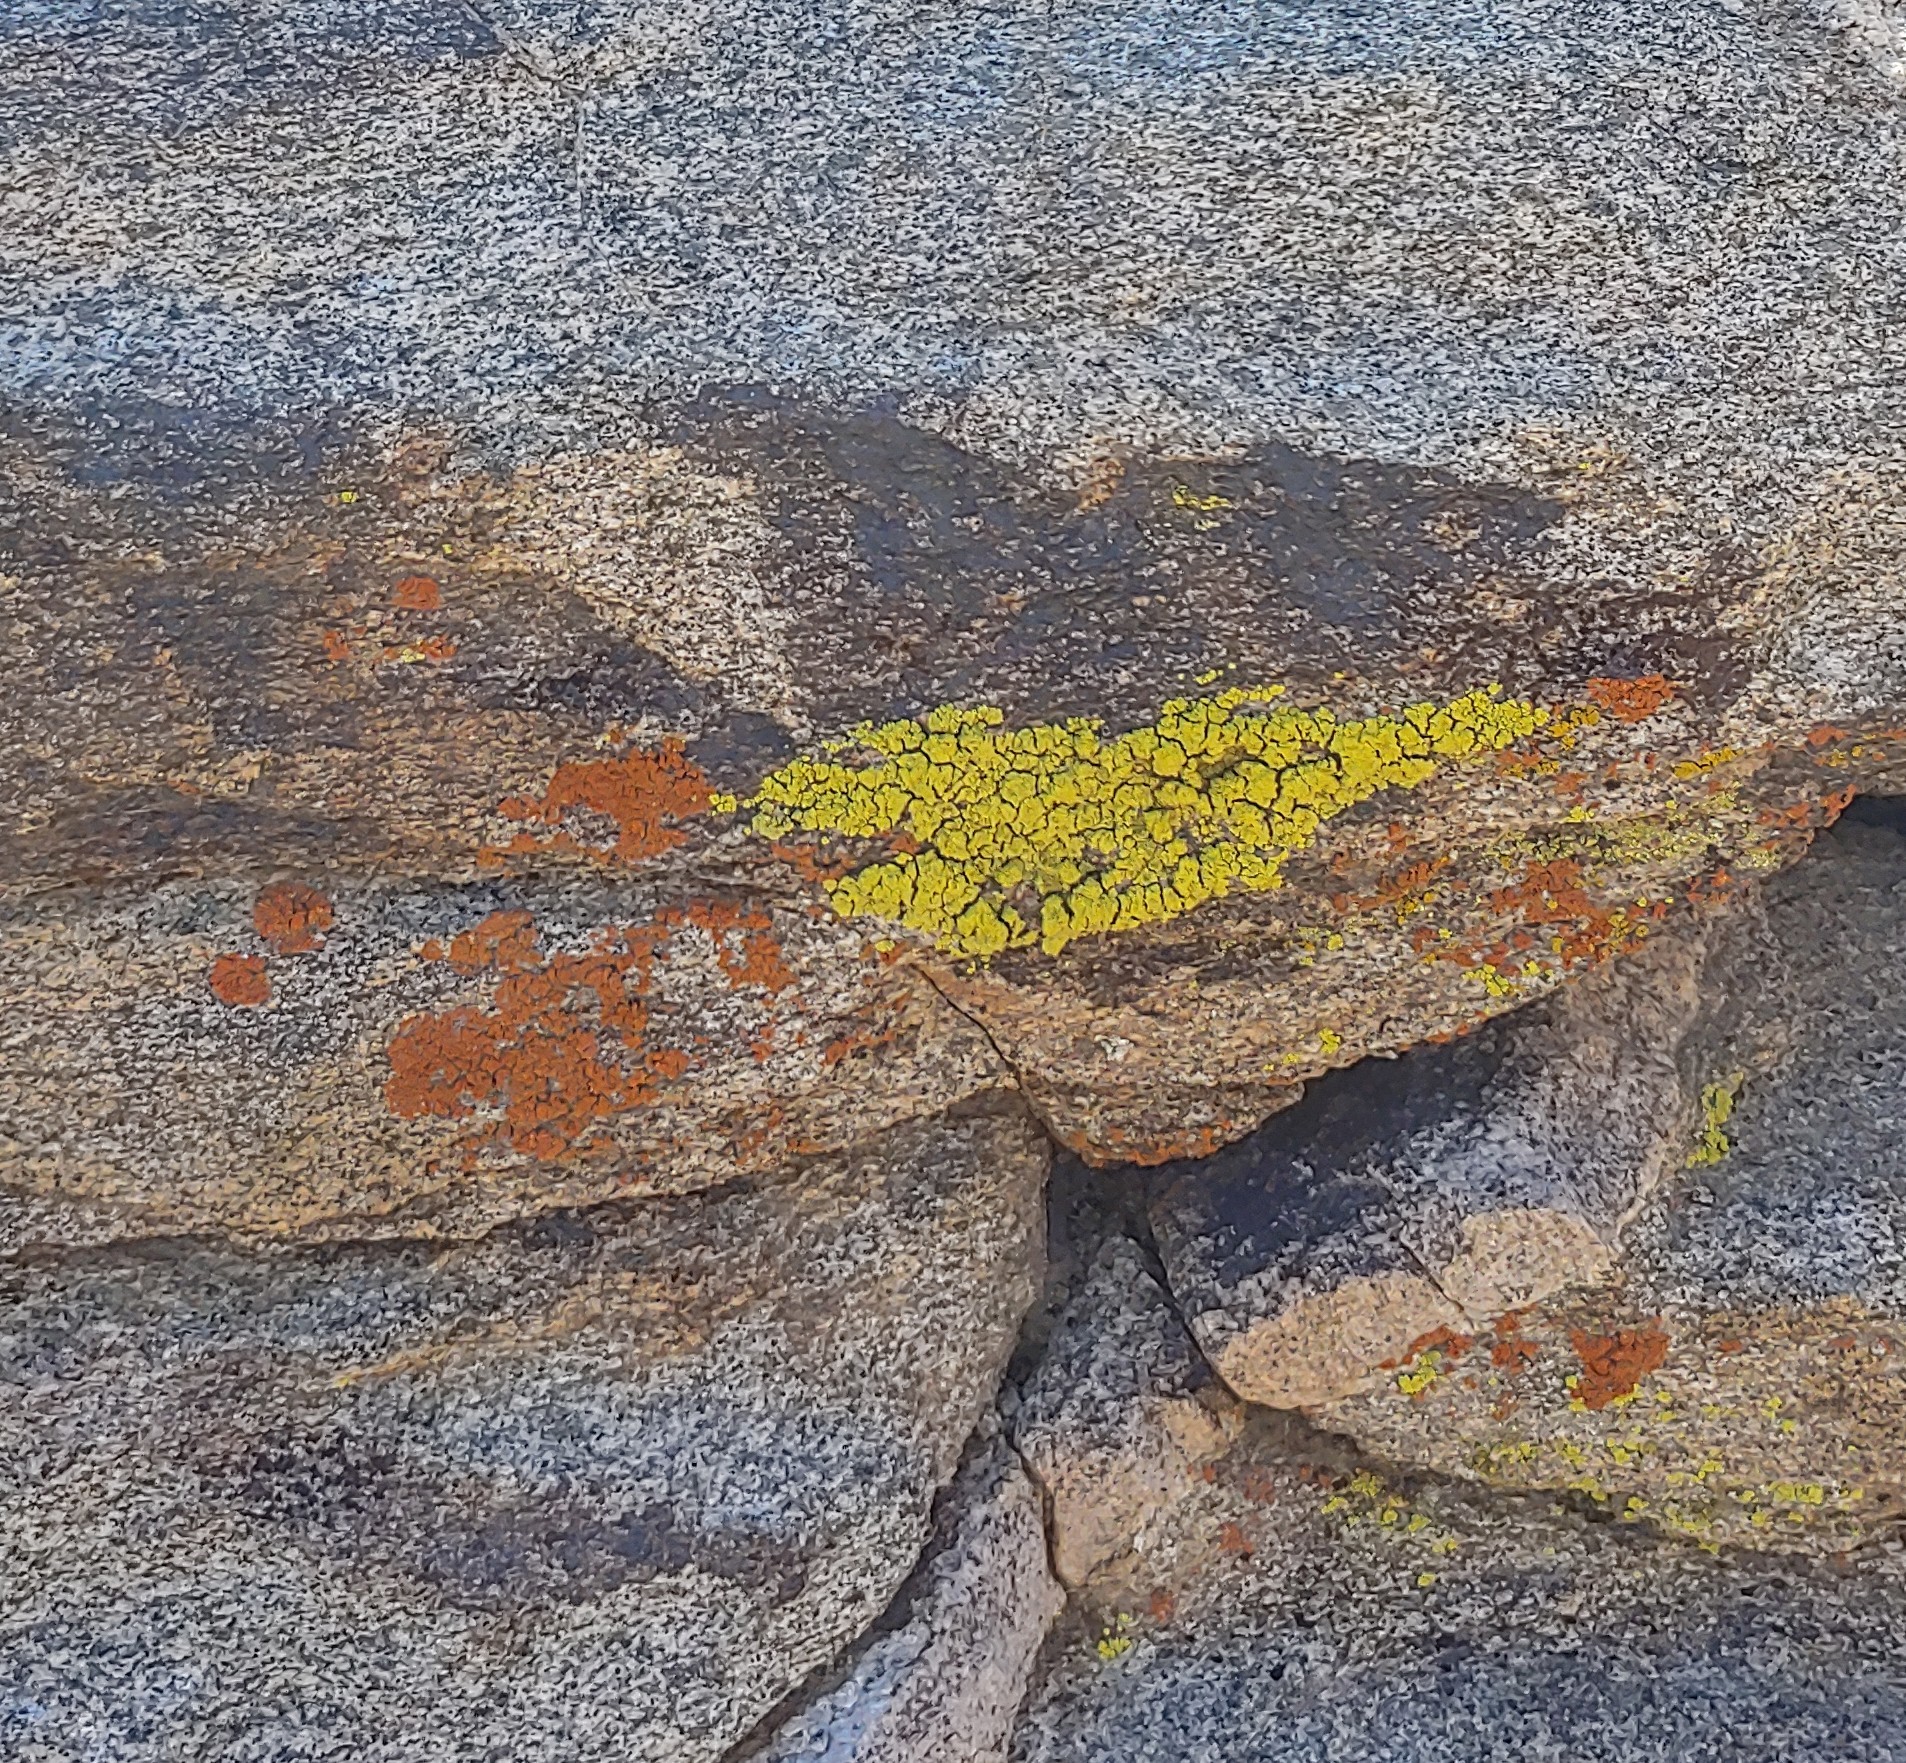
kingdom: Fungi
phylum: Ascomycota
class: Lecanoromycetes
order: Teloschistales
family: Teloschistaceae
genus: Xanthoria
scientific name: Xanthoria elegans
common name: Elegant sunburst lichen
